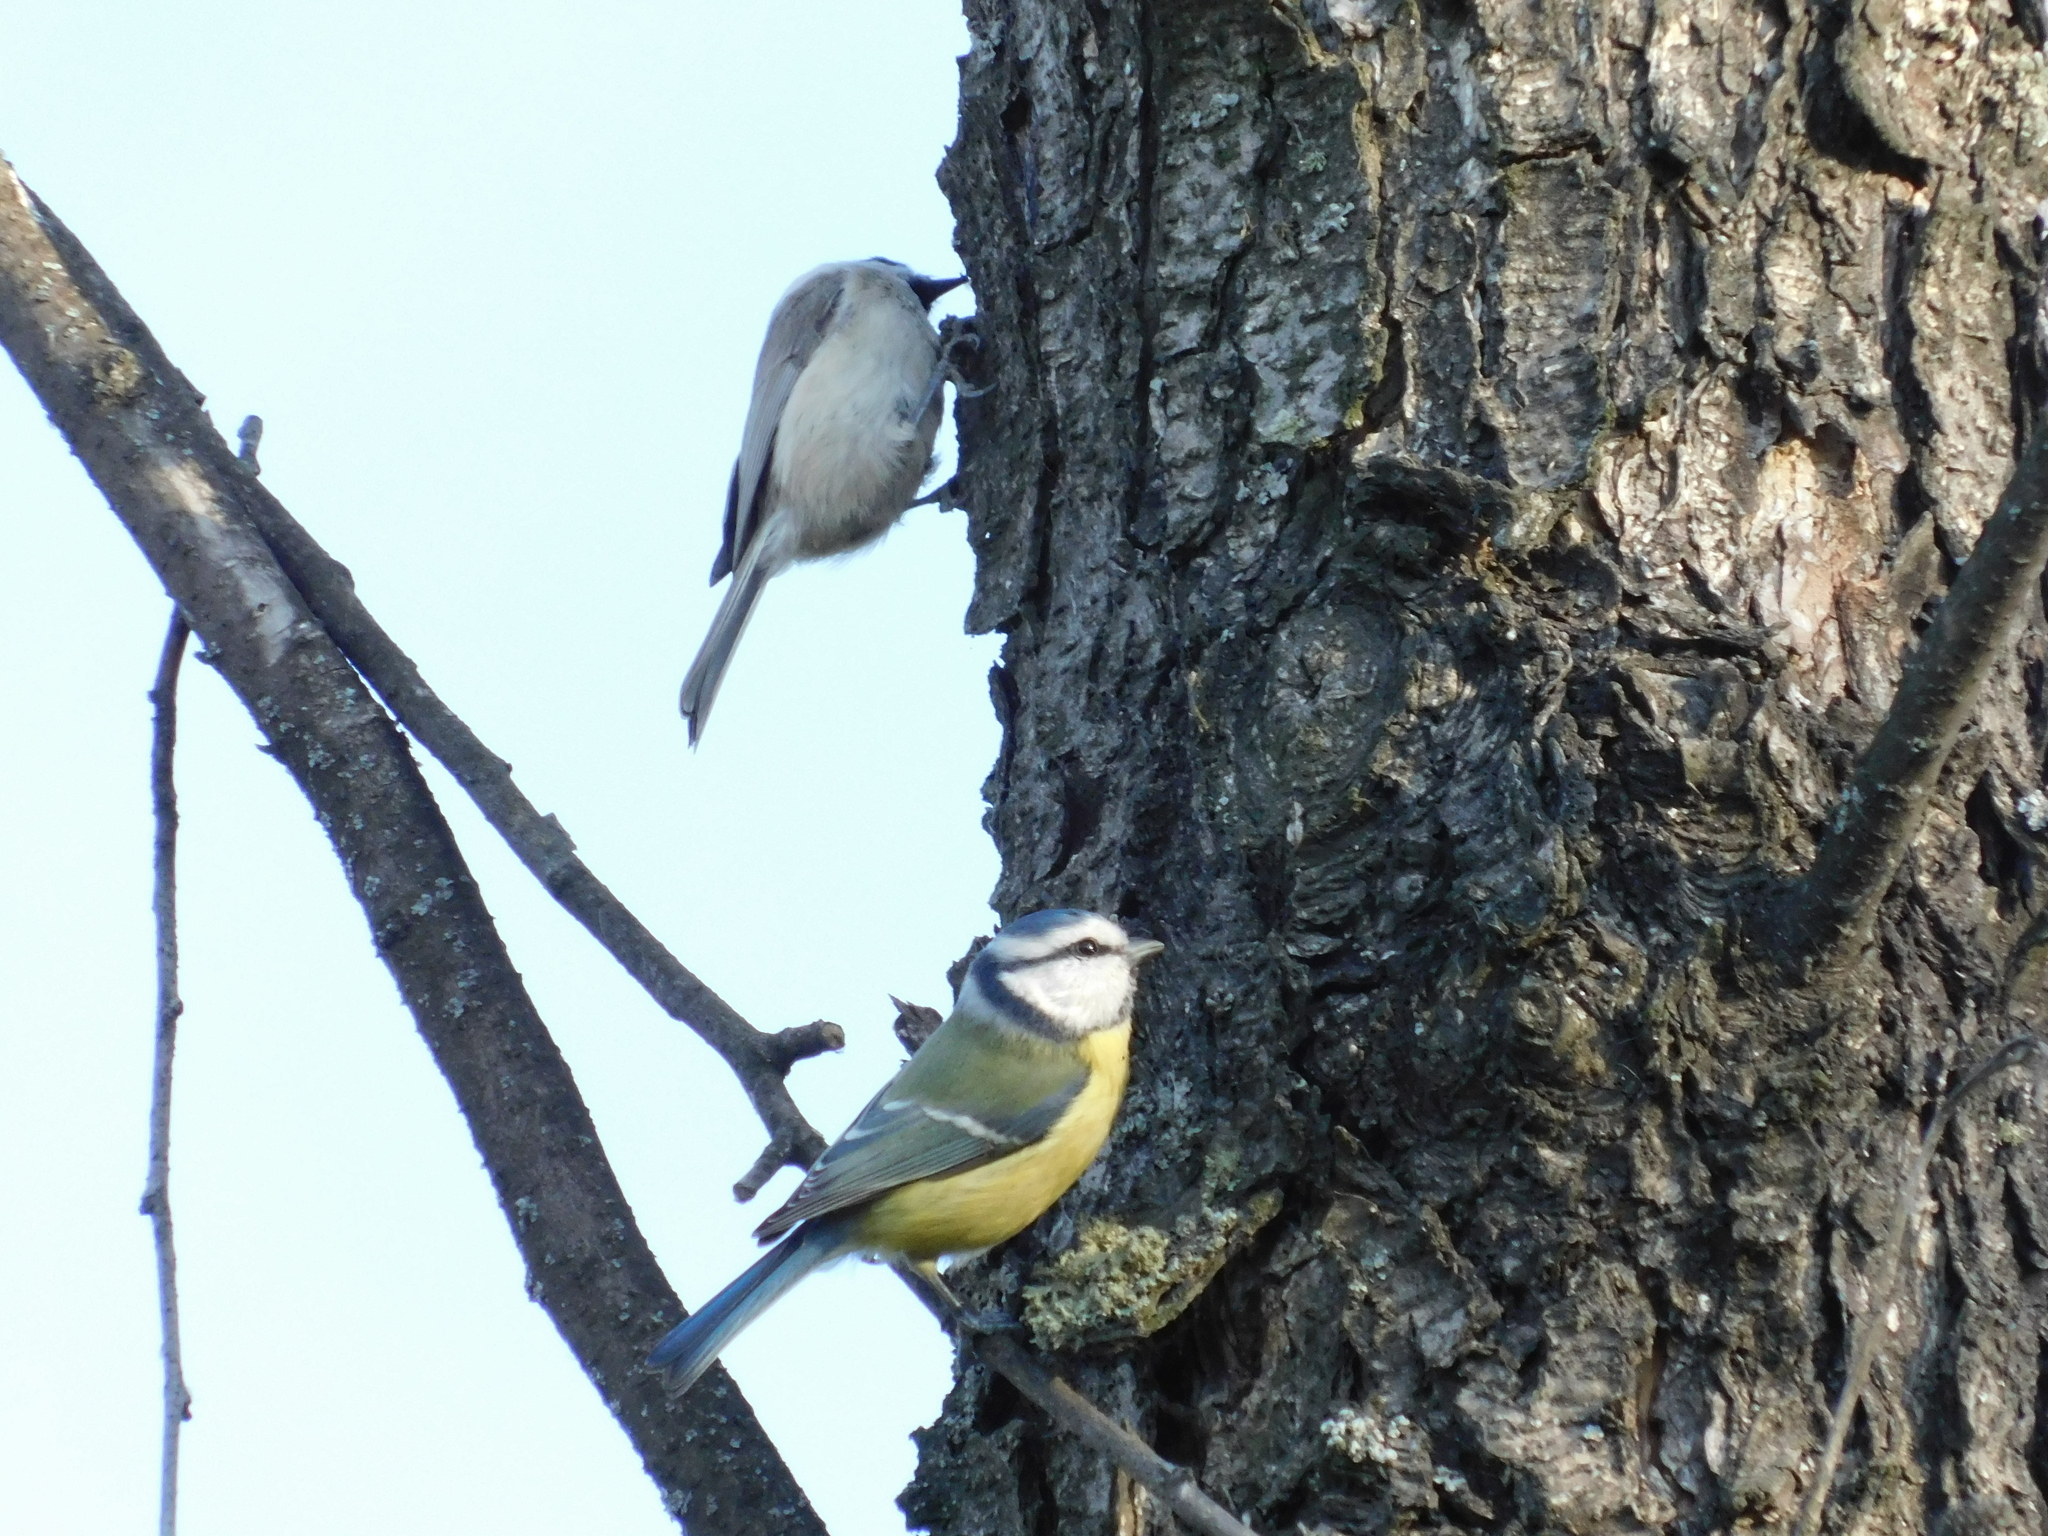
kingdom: Animalia
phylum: Chordata
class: Aves
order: Passeriformes
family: Paridae
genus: Cyanistes
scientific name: Cyanistes caeruleus
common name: Eurasian blue tit
